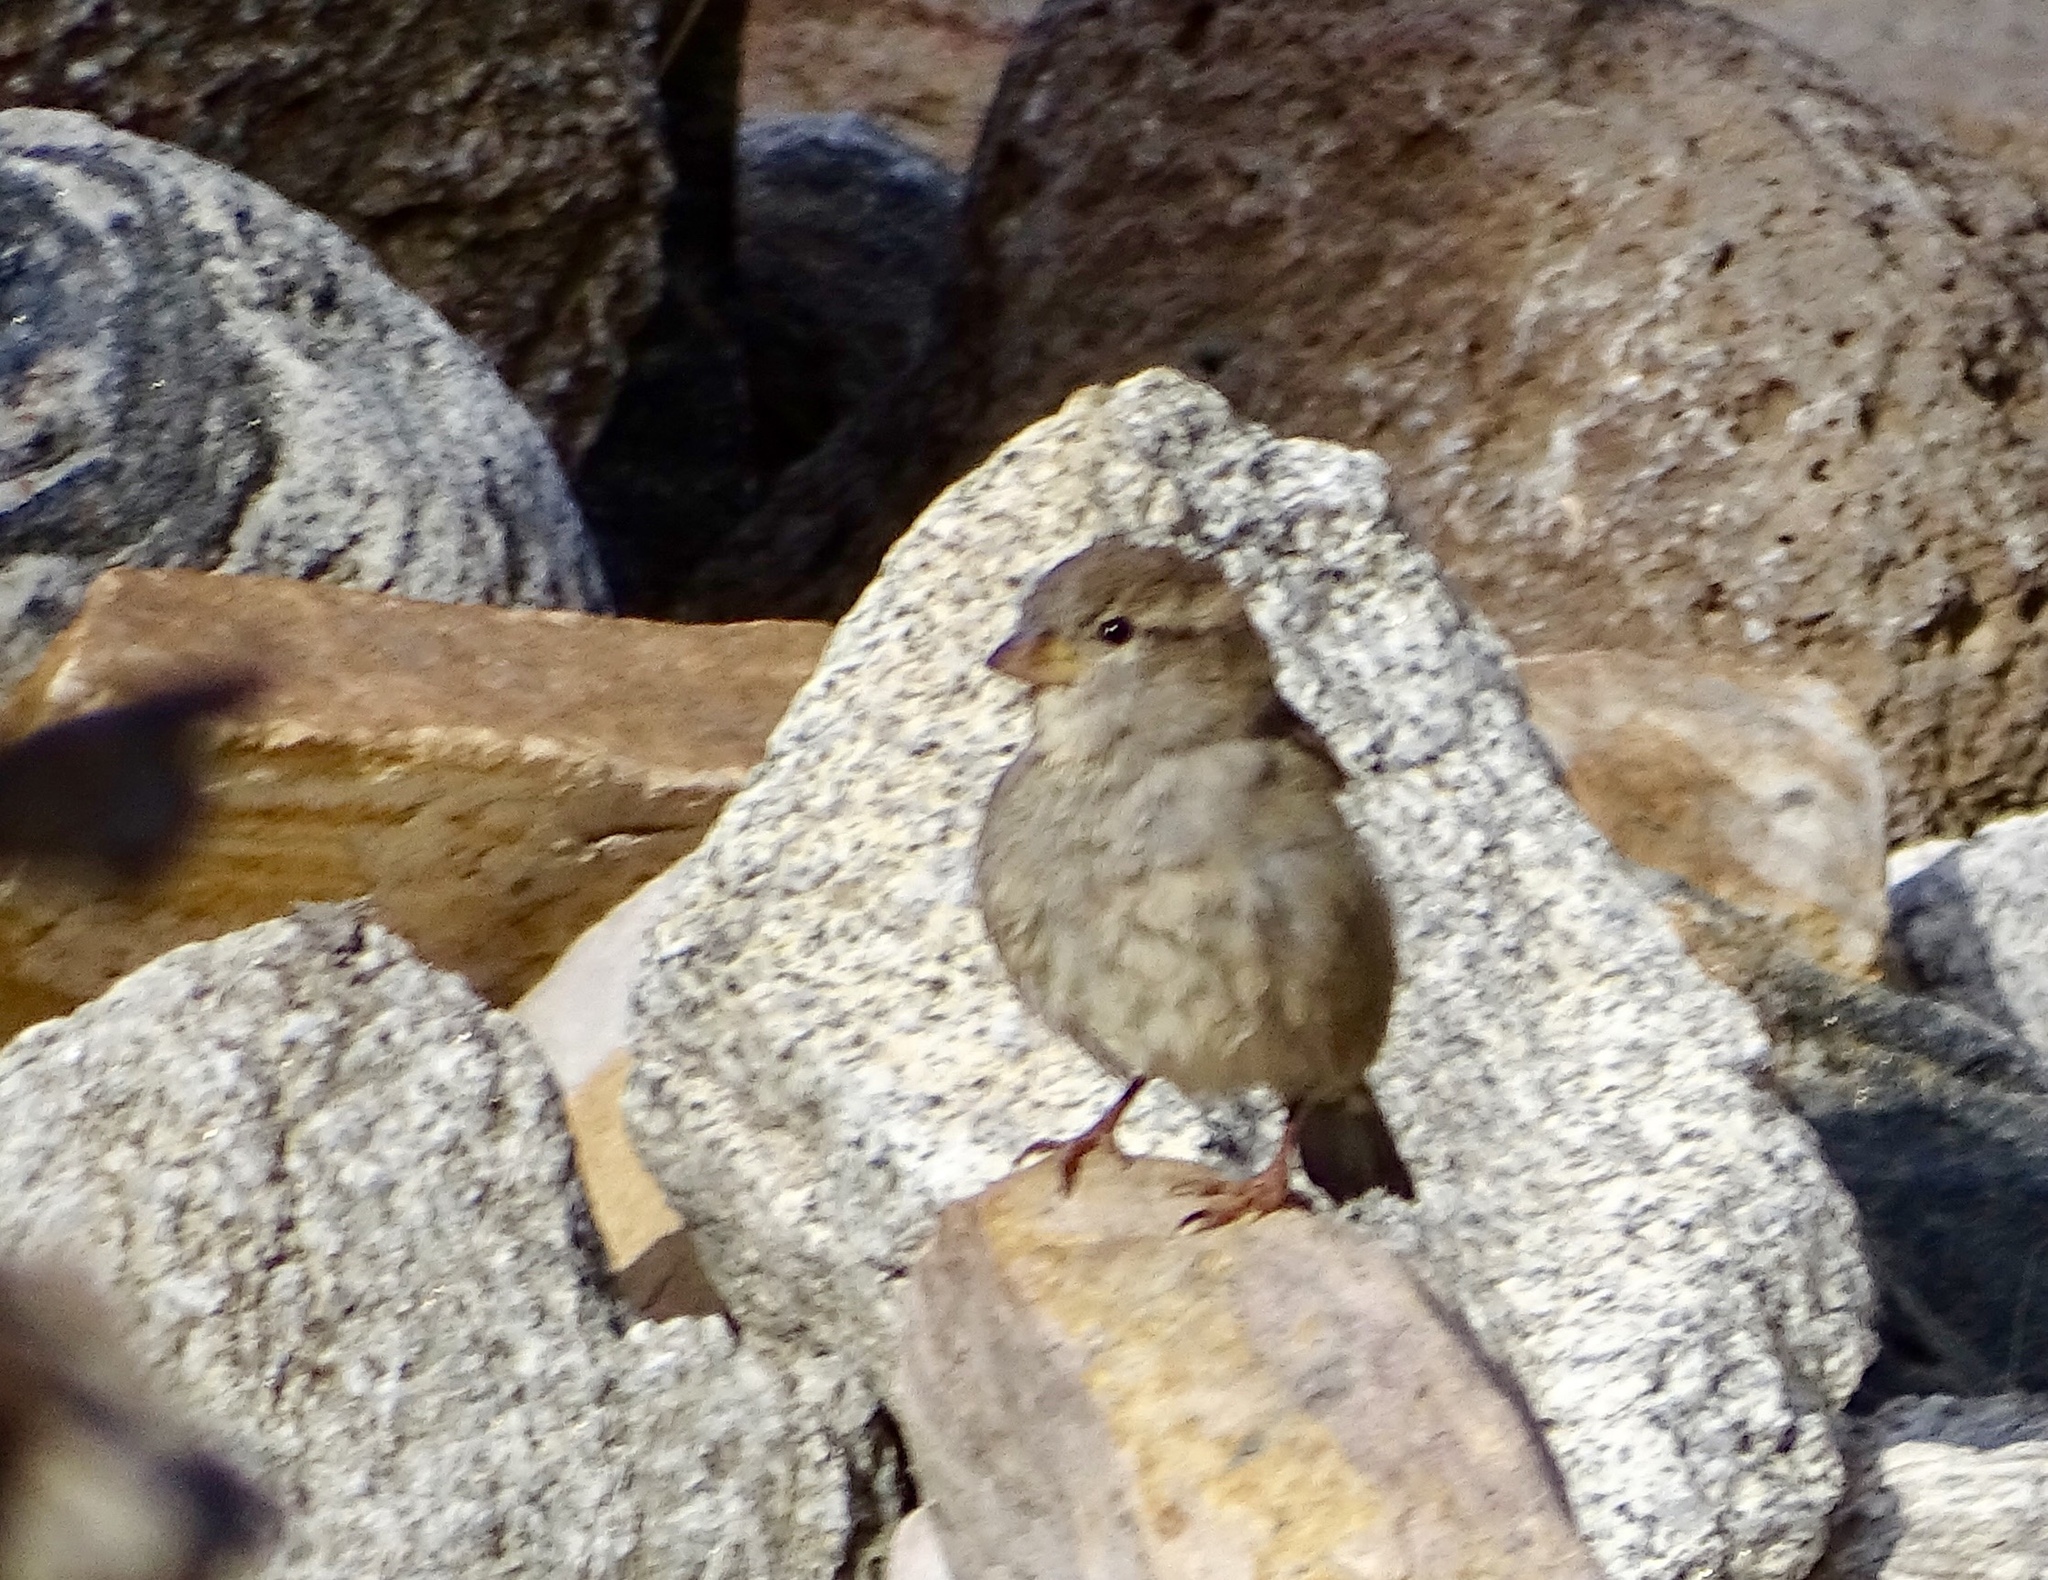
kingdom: Animalia
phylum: Chordata
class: Aves
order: Passeriformes
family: Passeridae
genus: Passer
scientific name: Passer domesticus
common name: House sparrow
